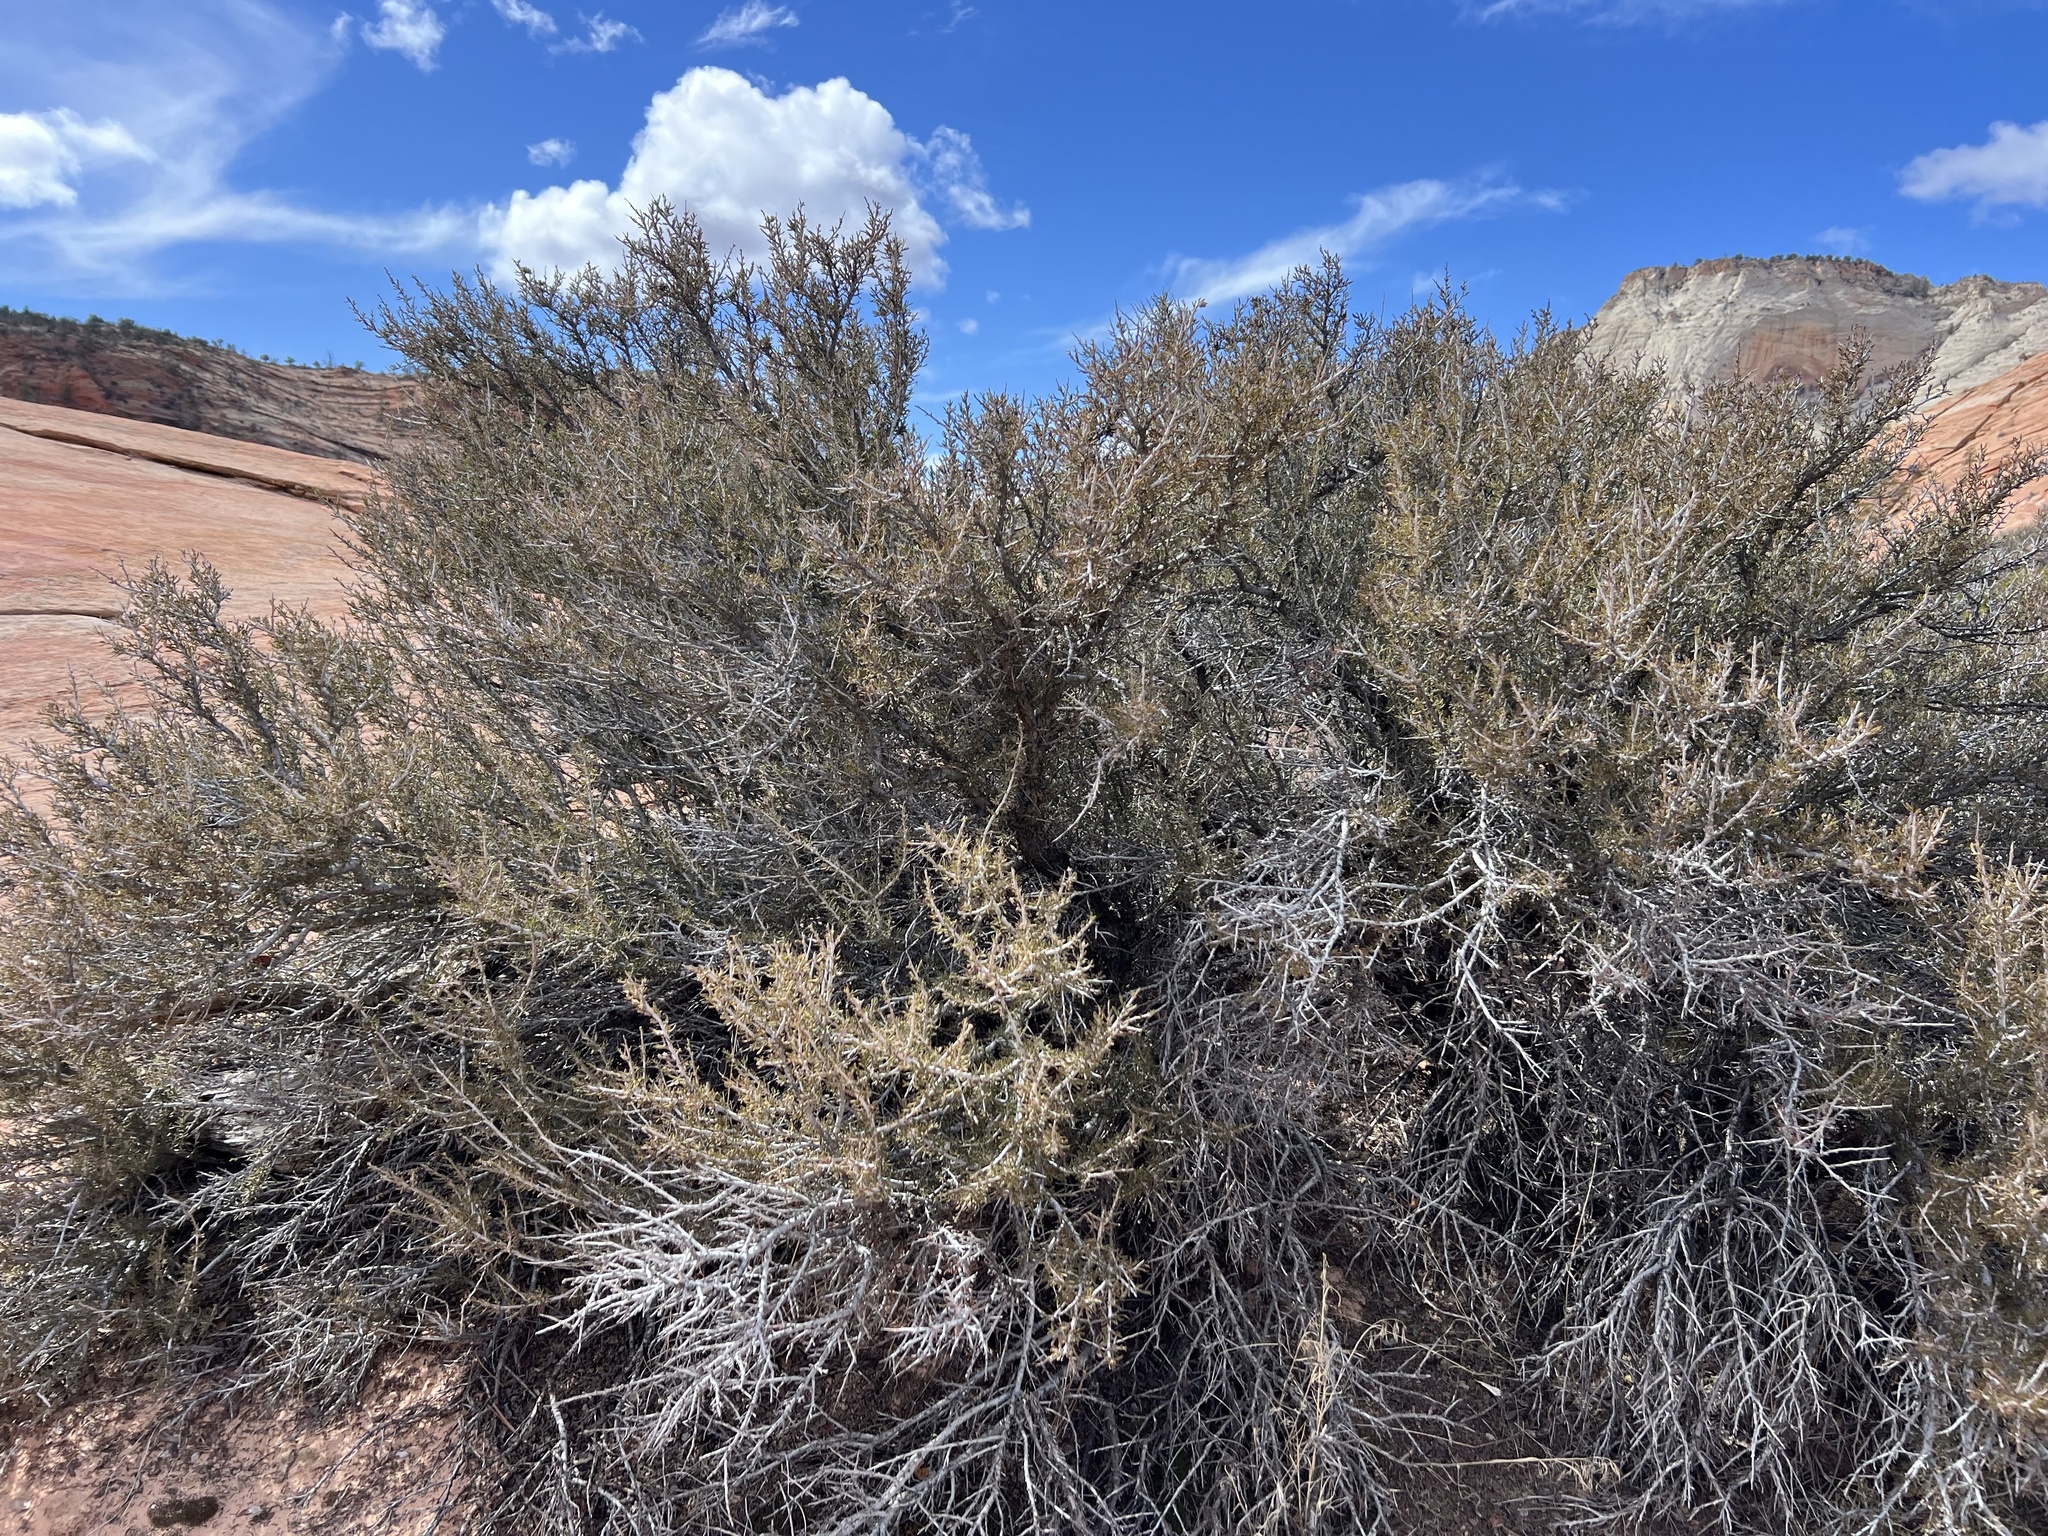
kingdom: Plantae
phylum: Tracheophyta
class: Magnoliopsida
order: Rosales
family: Rosaceae
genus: Cercocarpus
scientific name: Cercocarpus intricatus
